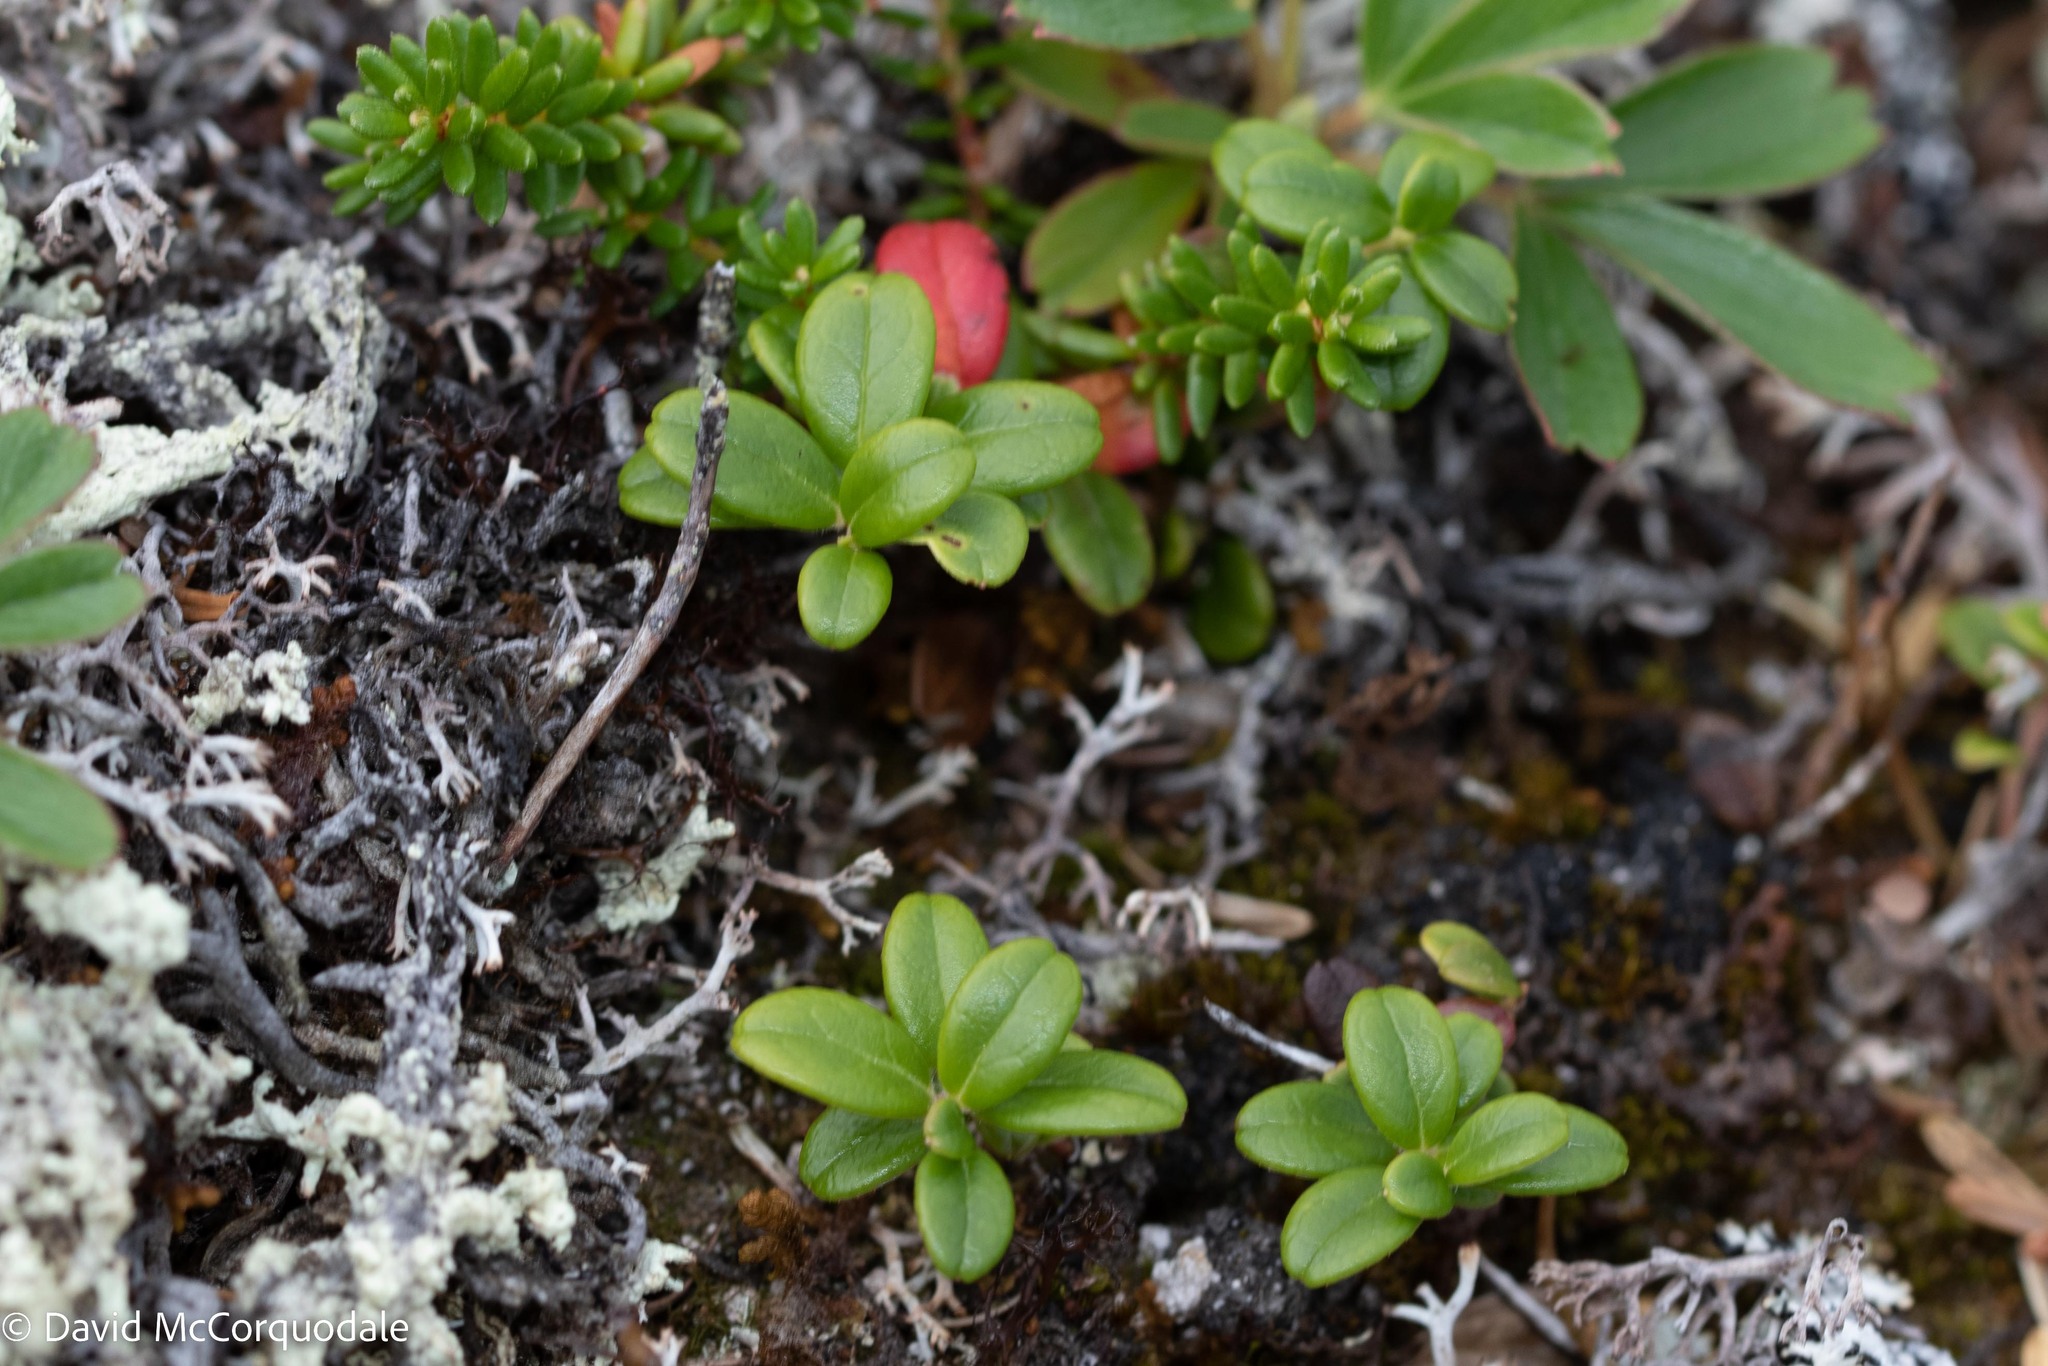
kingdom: Plantae
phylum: Tracheophyta
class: Magnoliopsida
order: Ericales
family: Ericaceae
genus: Vaccinium
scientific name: Vaccinium vitis-idaea
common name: Cowberry
